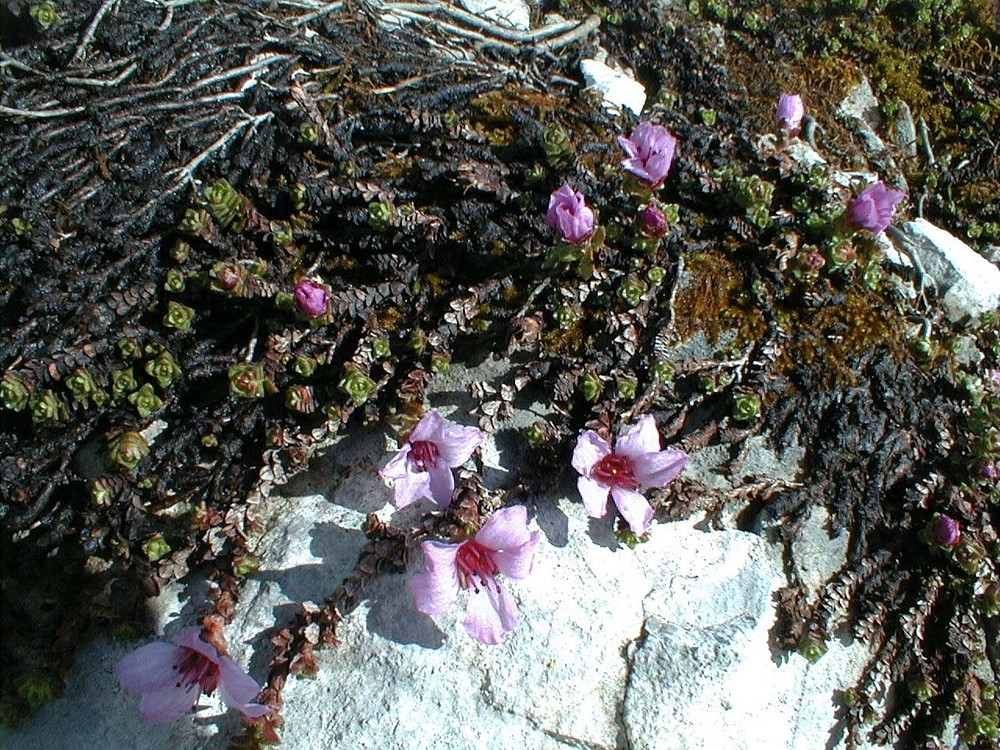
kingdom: Plantae
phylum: Tracheophyta
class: Magnoliopsida
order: Saxifragales
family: Saxifragaceae
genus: Saxifraga
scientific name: Saxifraga oppositifolia
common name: Purple saxifrage
